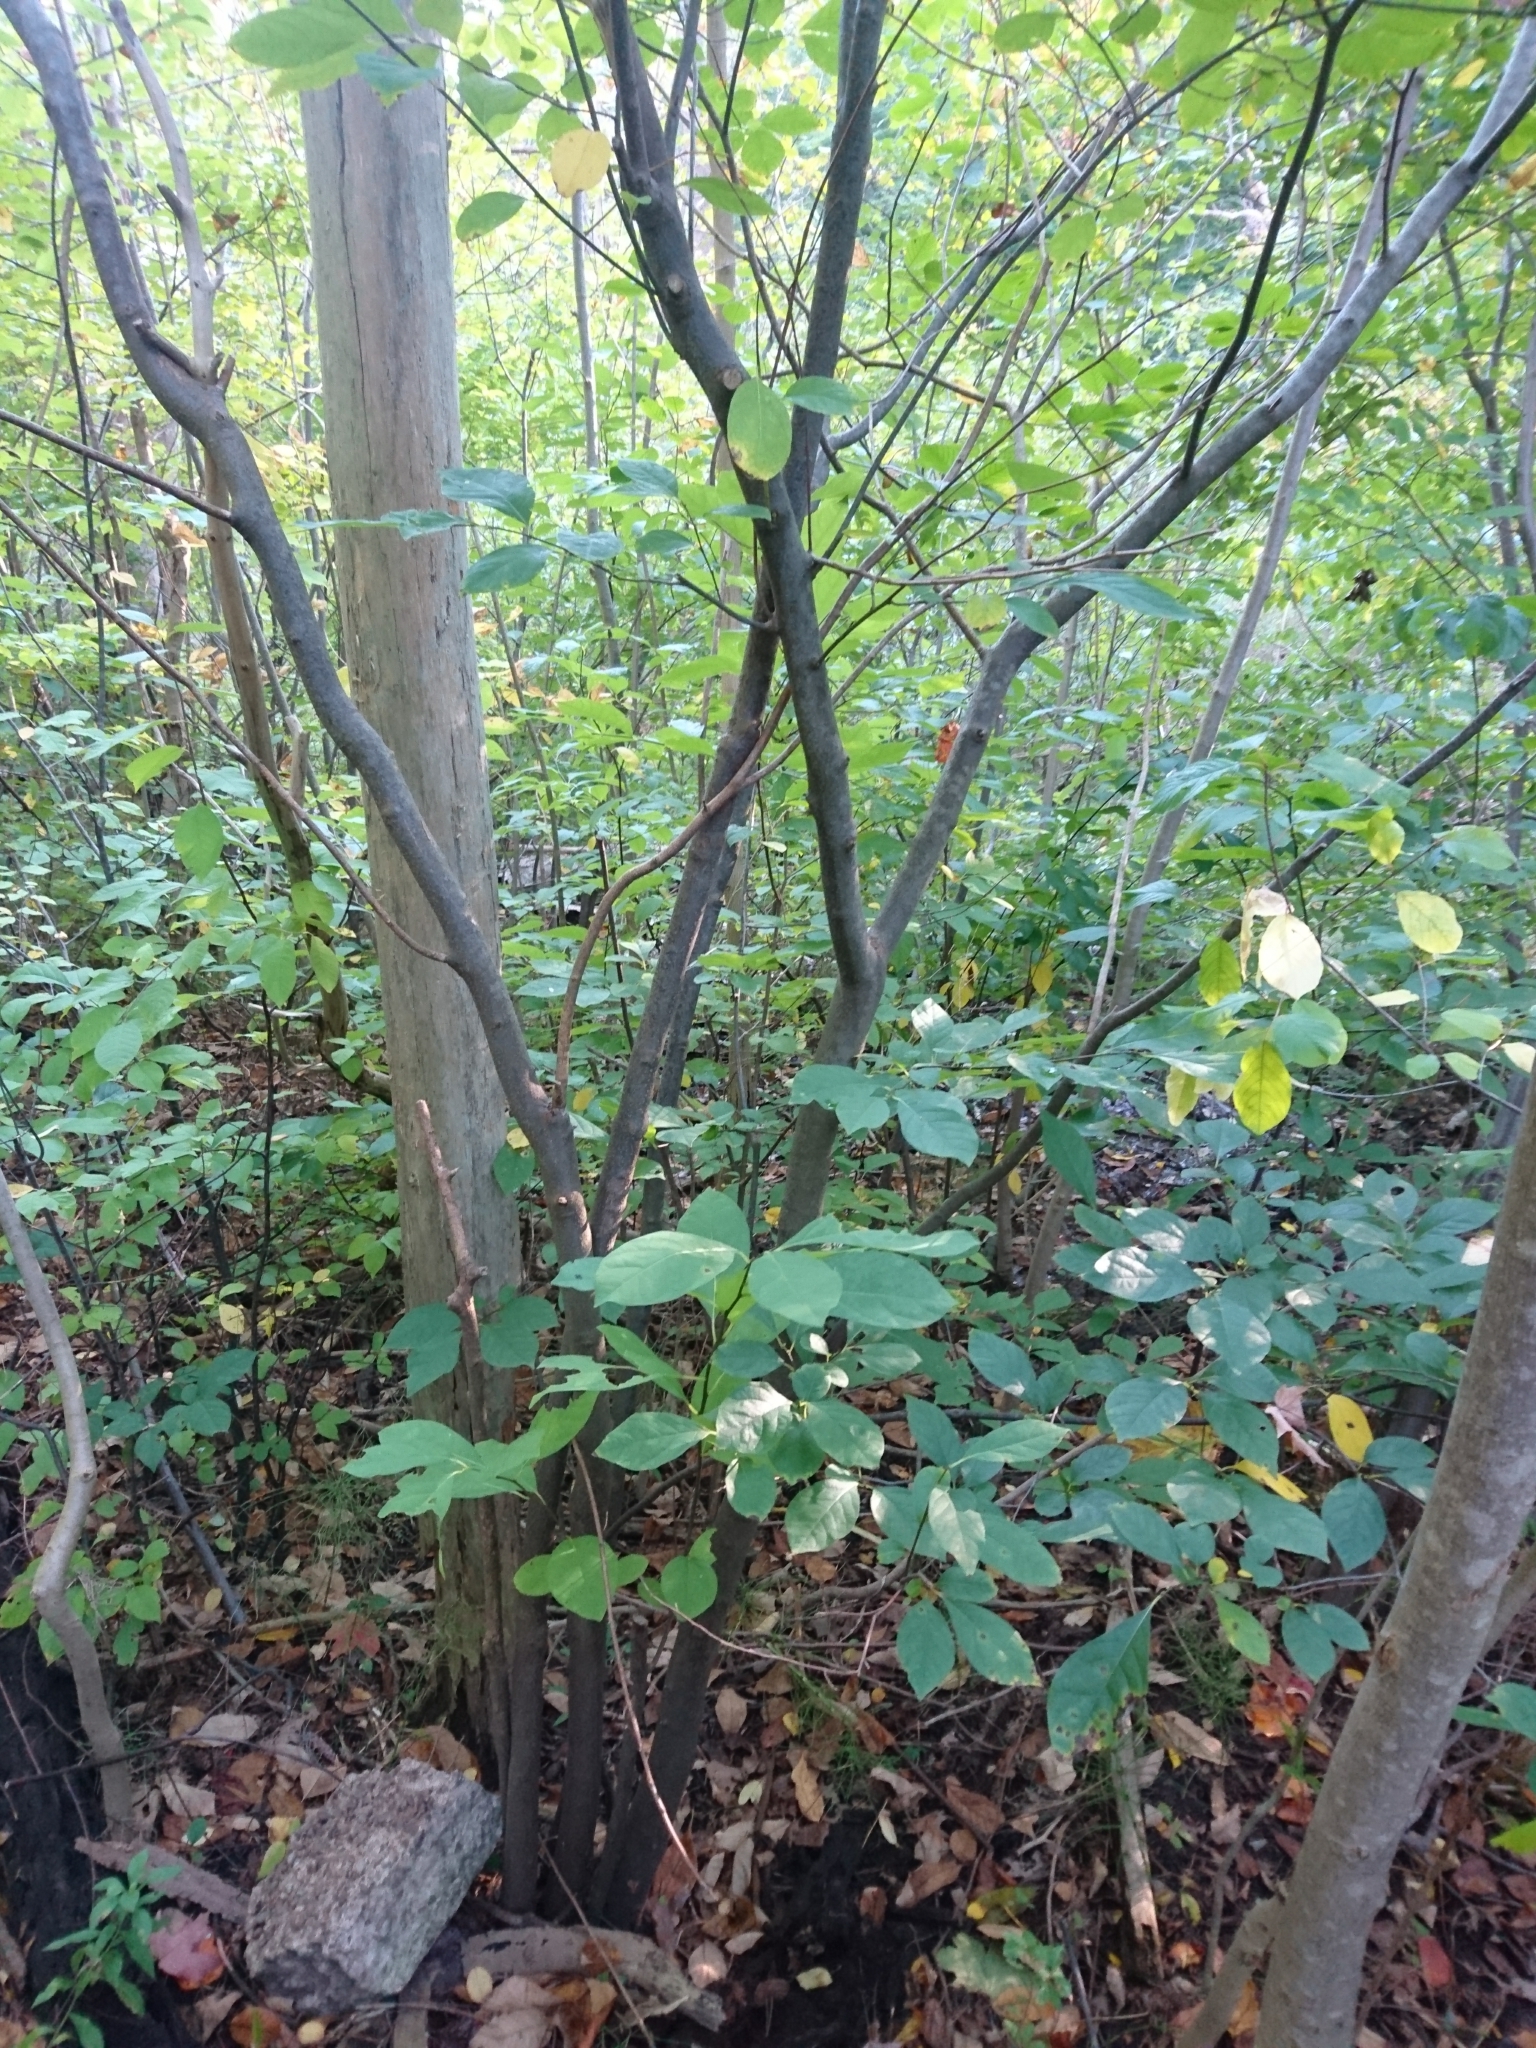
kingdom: Plantae
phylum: Tracheophyta
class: Magnoliopsida
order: Laurales
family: Lauraceae
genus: Lindera
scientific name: Lindera benzoin
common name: Spicebush
